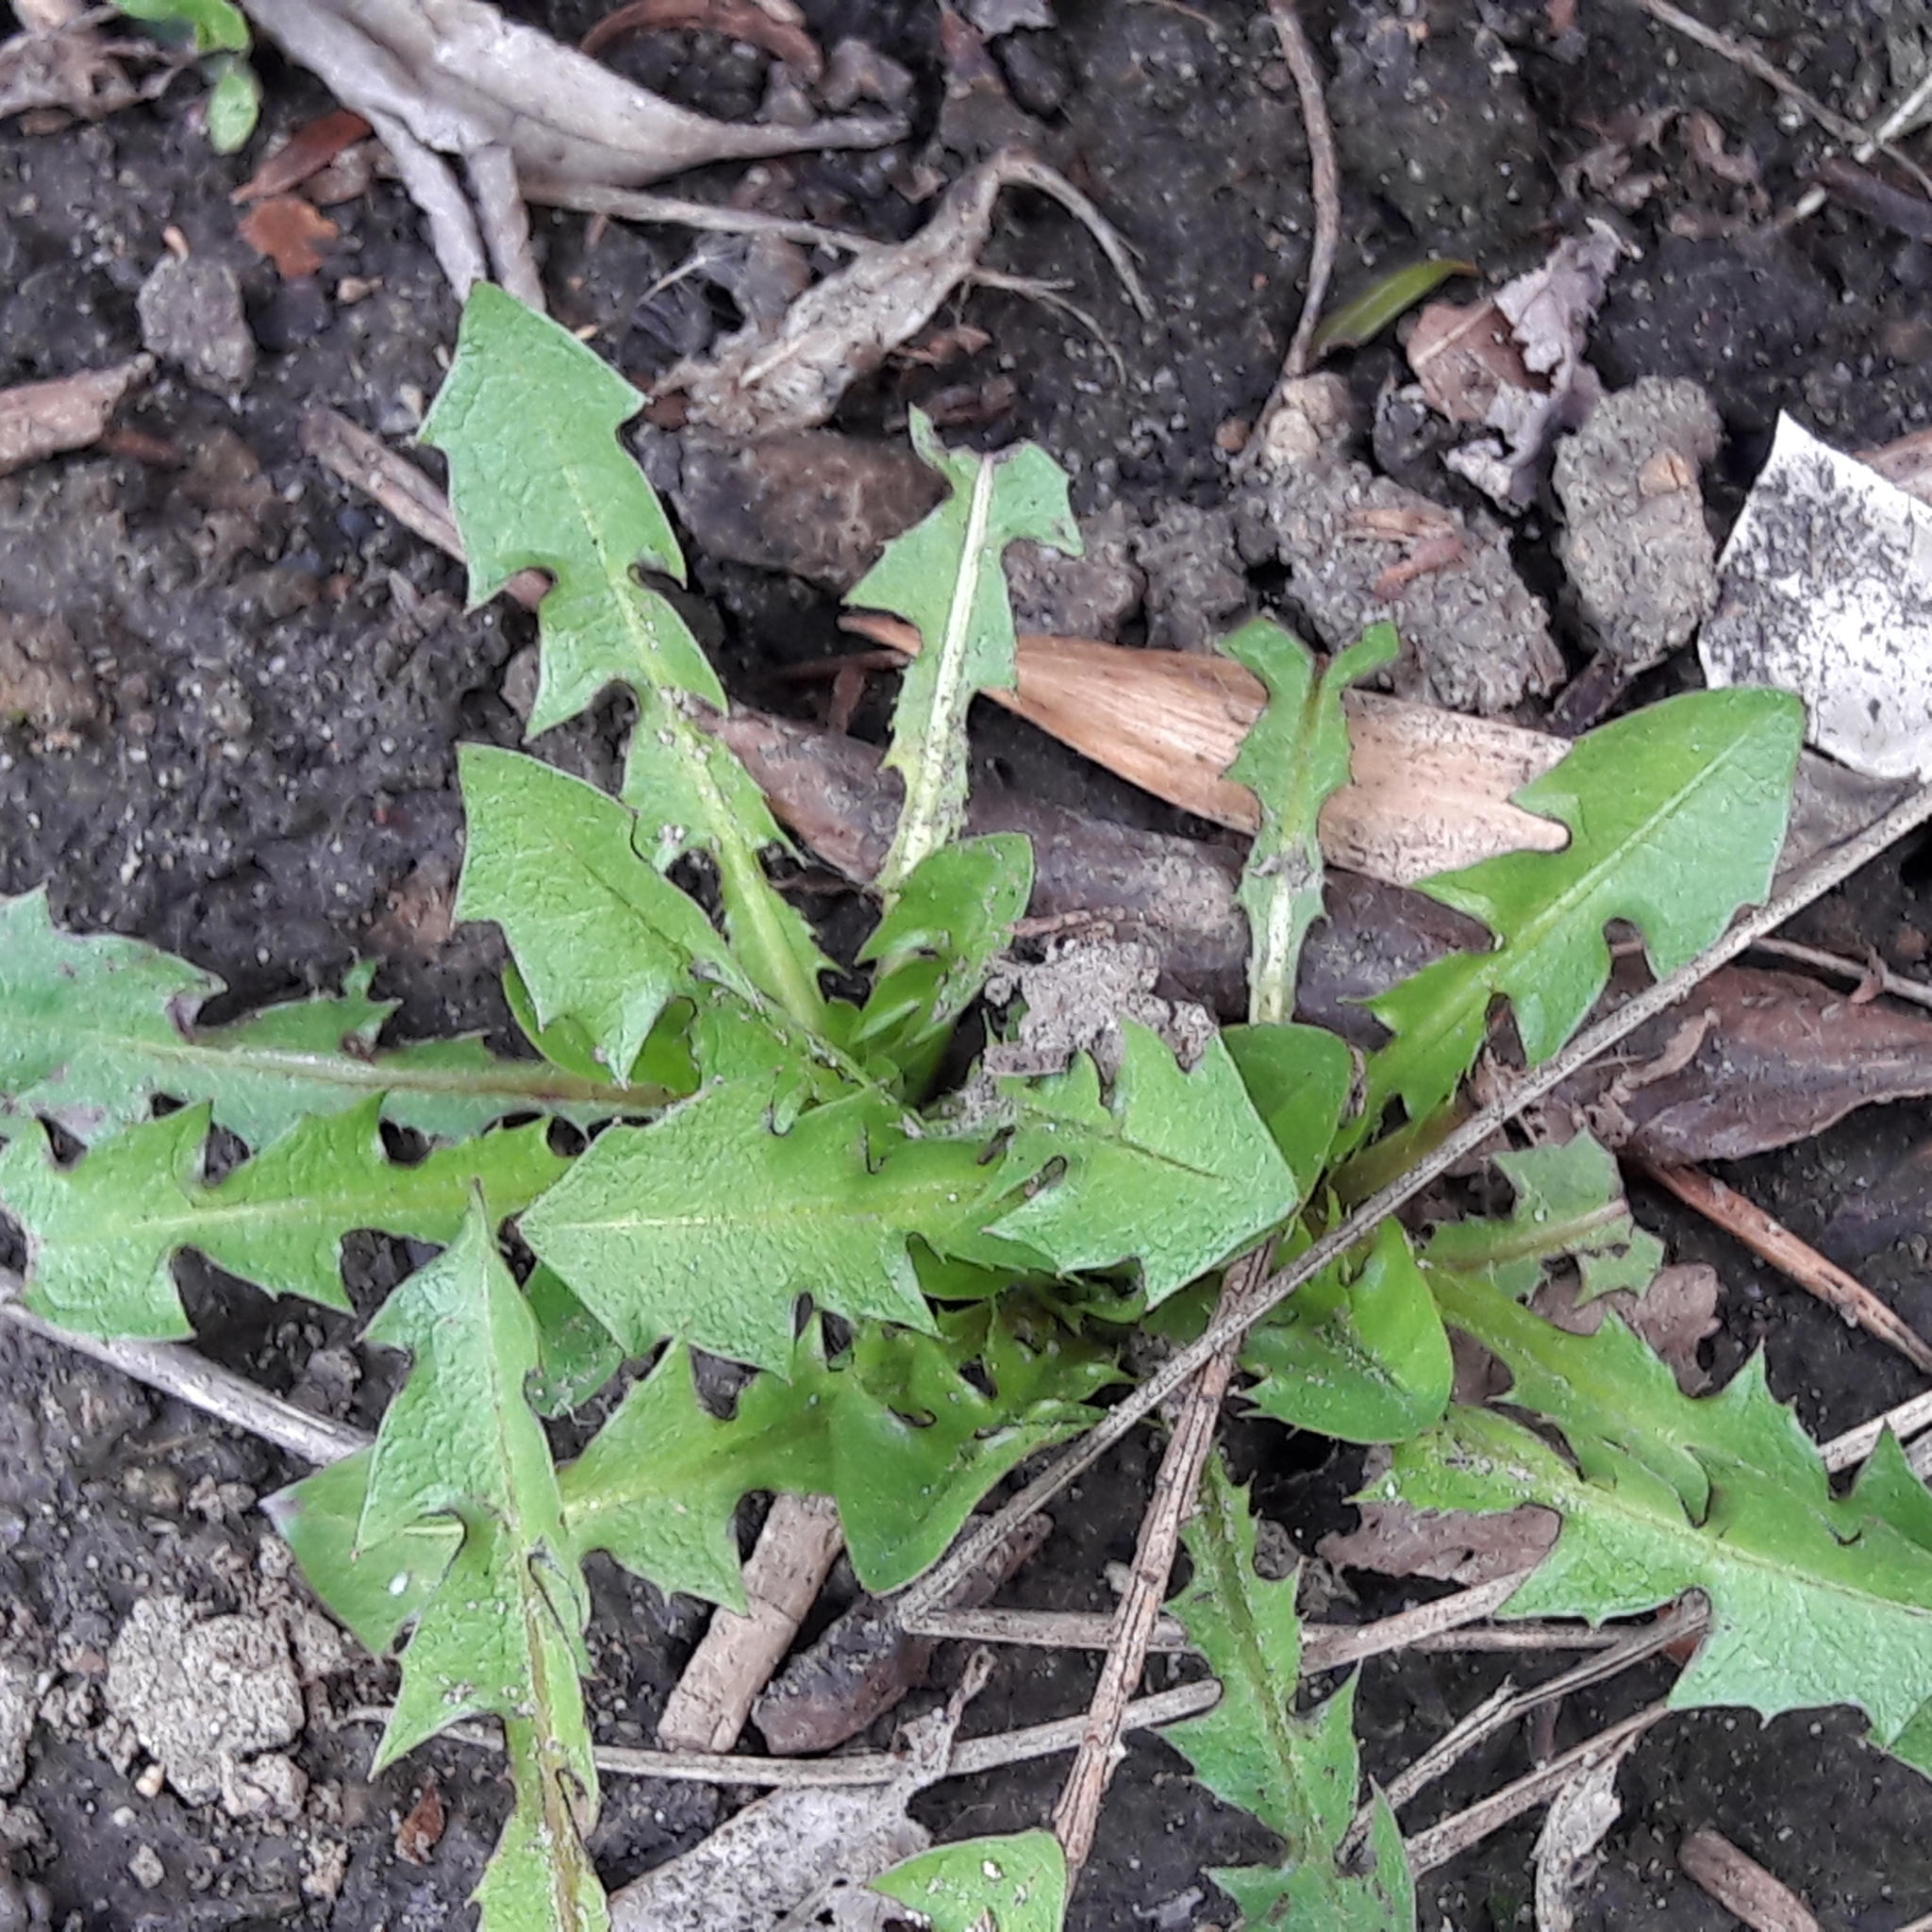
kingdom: Plantae
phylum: Tracheophyta
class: Magnoliopsida
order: Asterales
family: Asteraceae
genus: Taraxacum
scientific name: Taraxacum officinale
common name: Common dandelion
